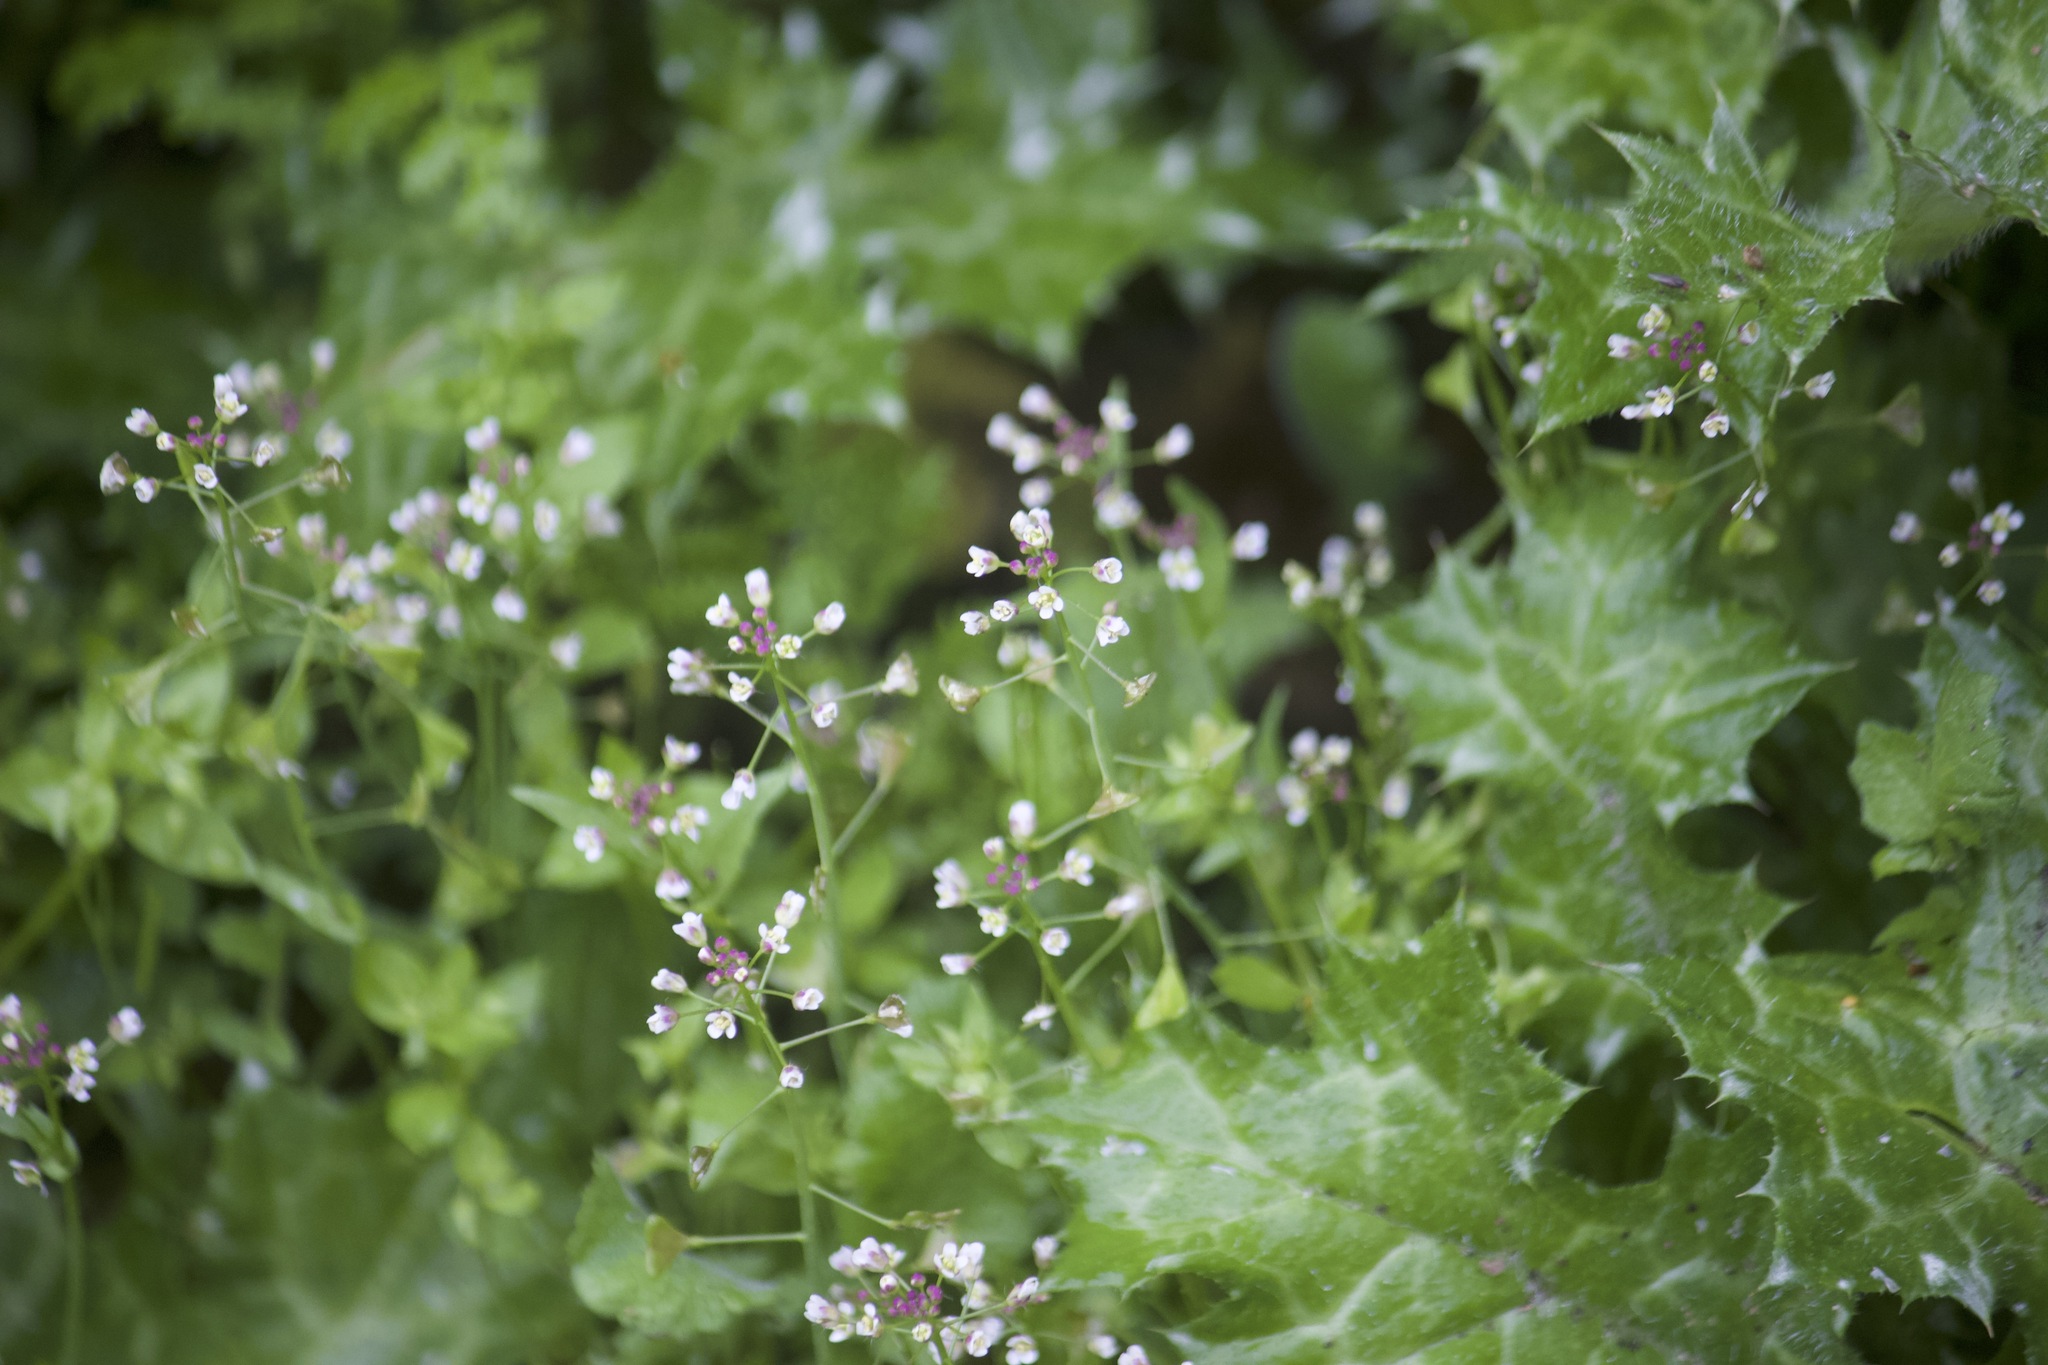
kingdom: Plantae
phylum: Tracheophyta
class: Magnoliopsida
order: Brassicales
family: Brassicaceae
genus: Capsella
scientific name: Capsella bursa-pastoris
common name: Shepherd's purse
